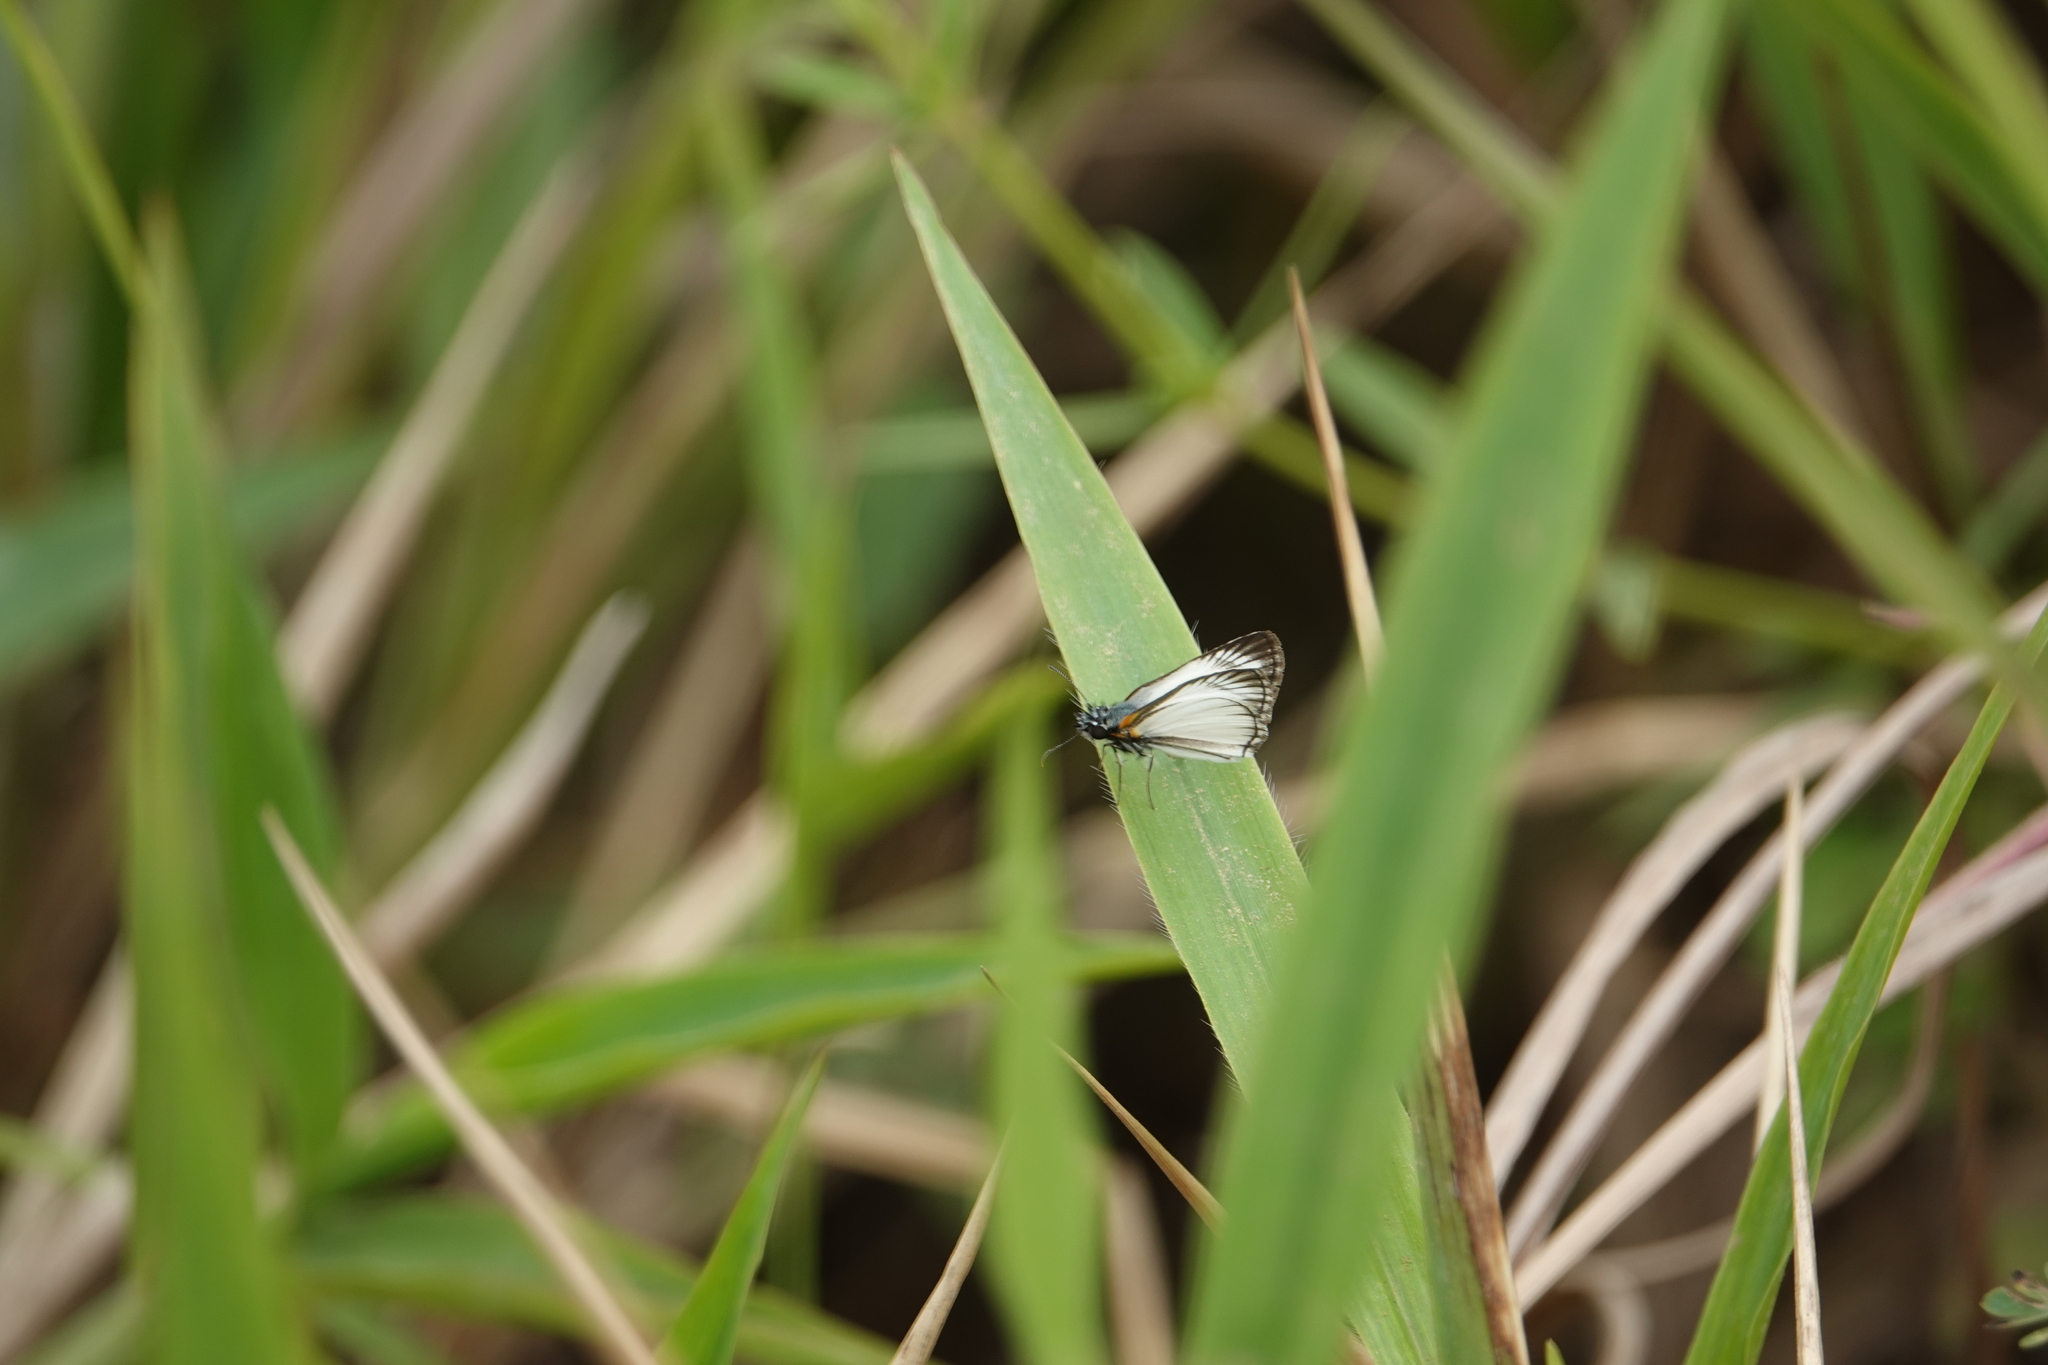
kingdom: Animalia
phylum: Arthropoda
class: Insecta
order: Lepidoptera
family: Hesperiidae
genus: Heliopetes
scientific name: Heliopetes arsalte
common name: Veined white-skipper
